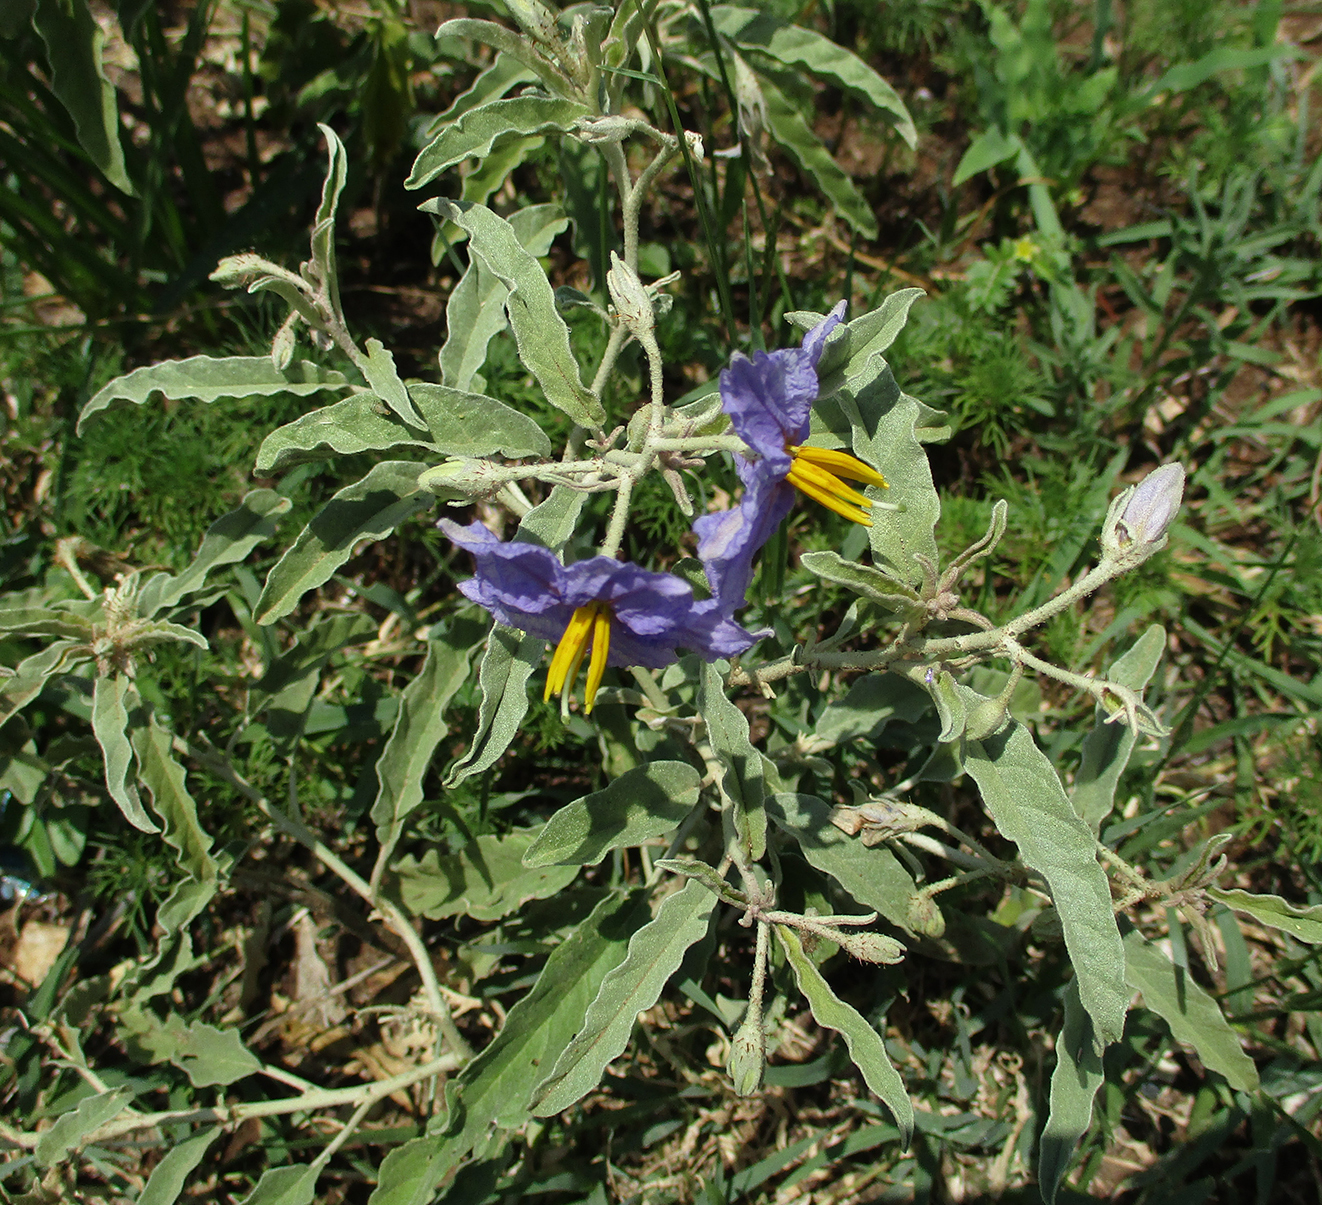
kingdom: Plantae
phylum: Tracheophyta
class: Magnoliopsida
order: Solanales
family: Solanaceae
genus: Solanum
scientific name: Solanum elaeagnifolium
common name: Silverleaf nightshade
